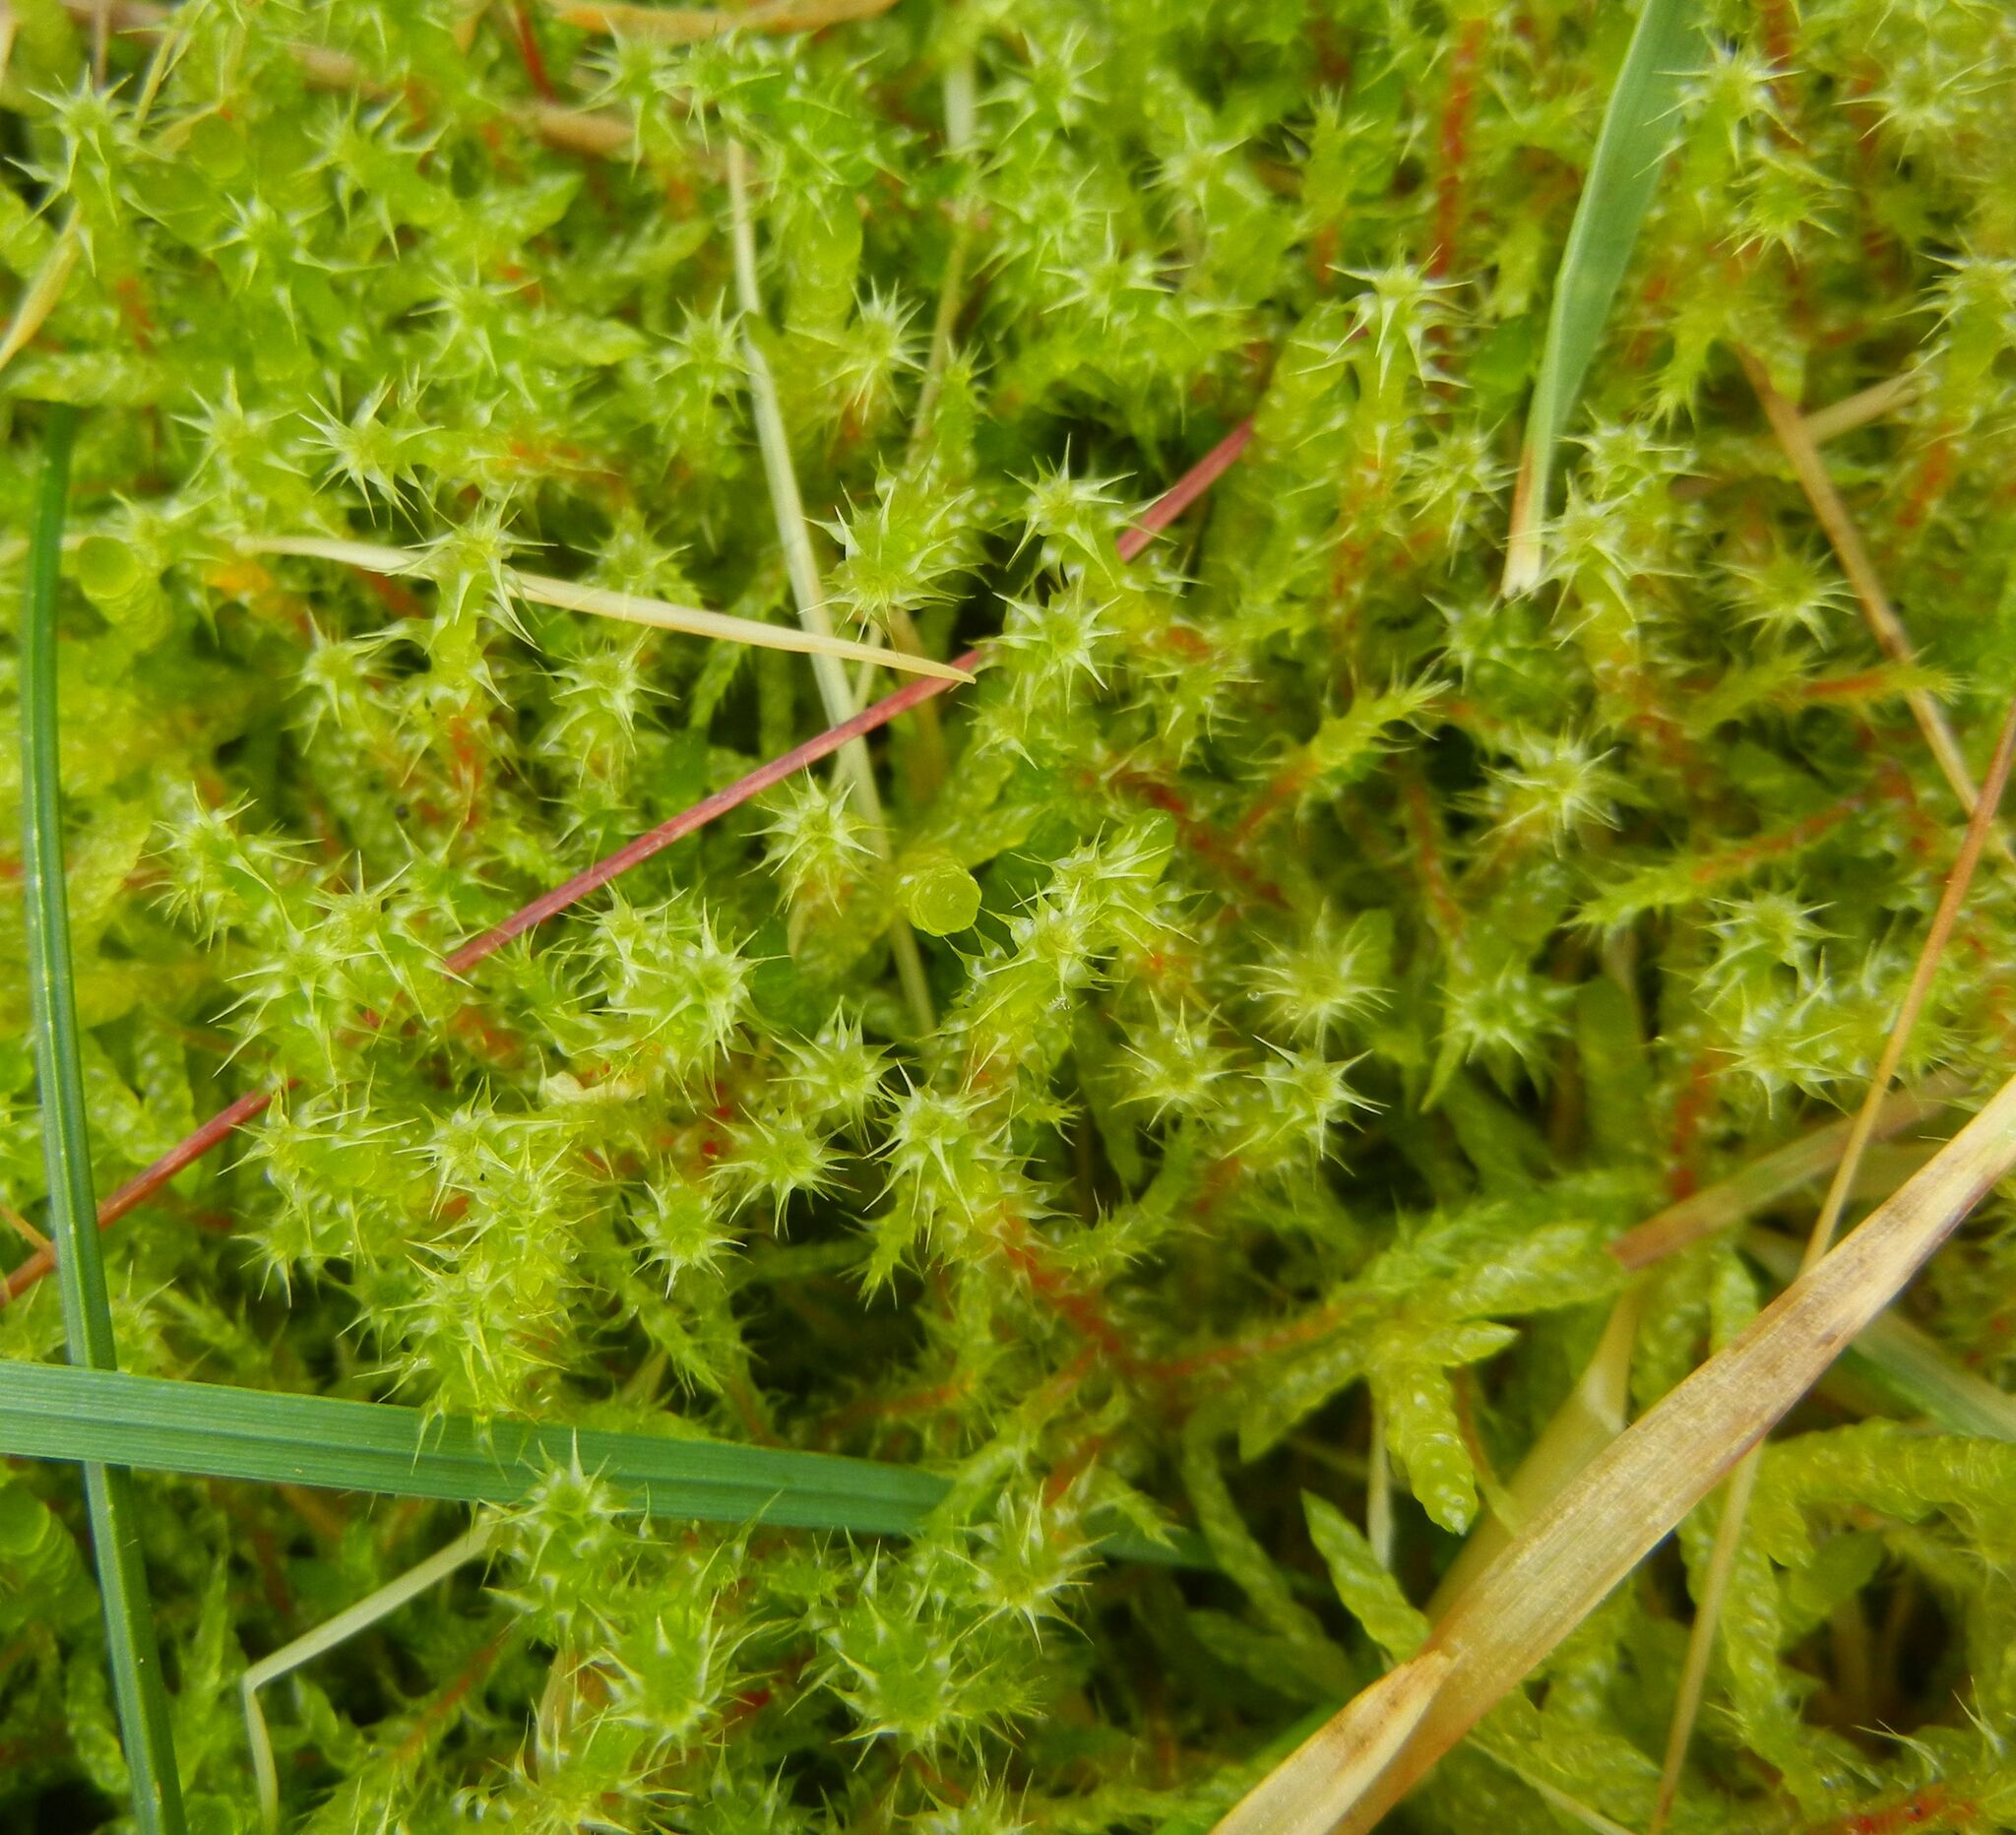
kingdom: Plantae
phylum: Bryophyta
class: Bryopsida
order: Hypnales
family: Hylocomiaceae
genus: Rhytidiadelphus
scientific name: Rhytidiadelphus squarrosus
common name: Springy turf-moss
